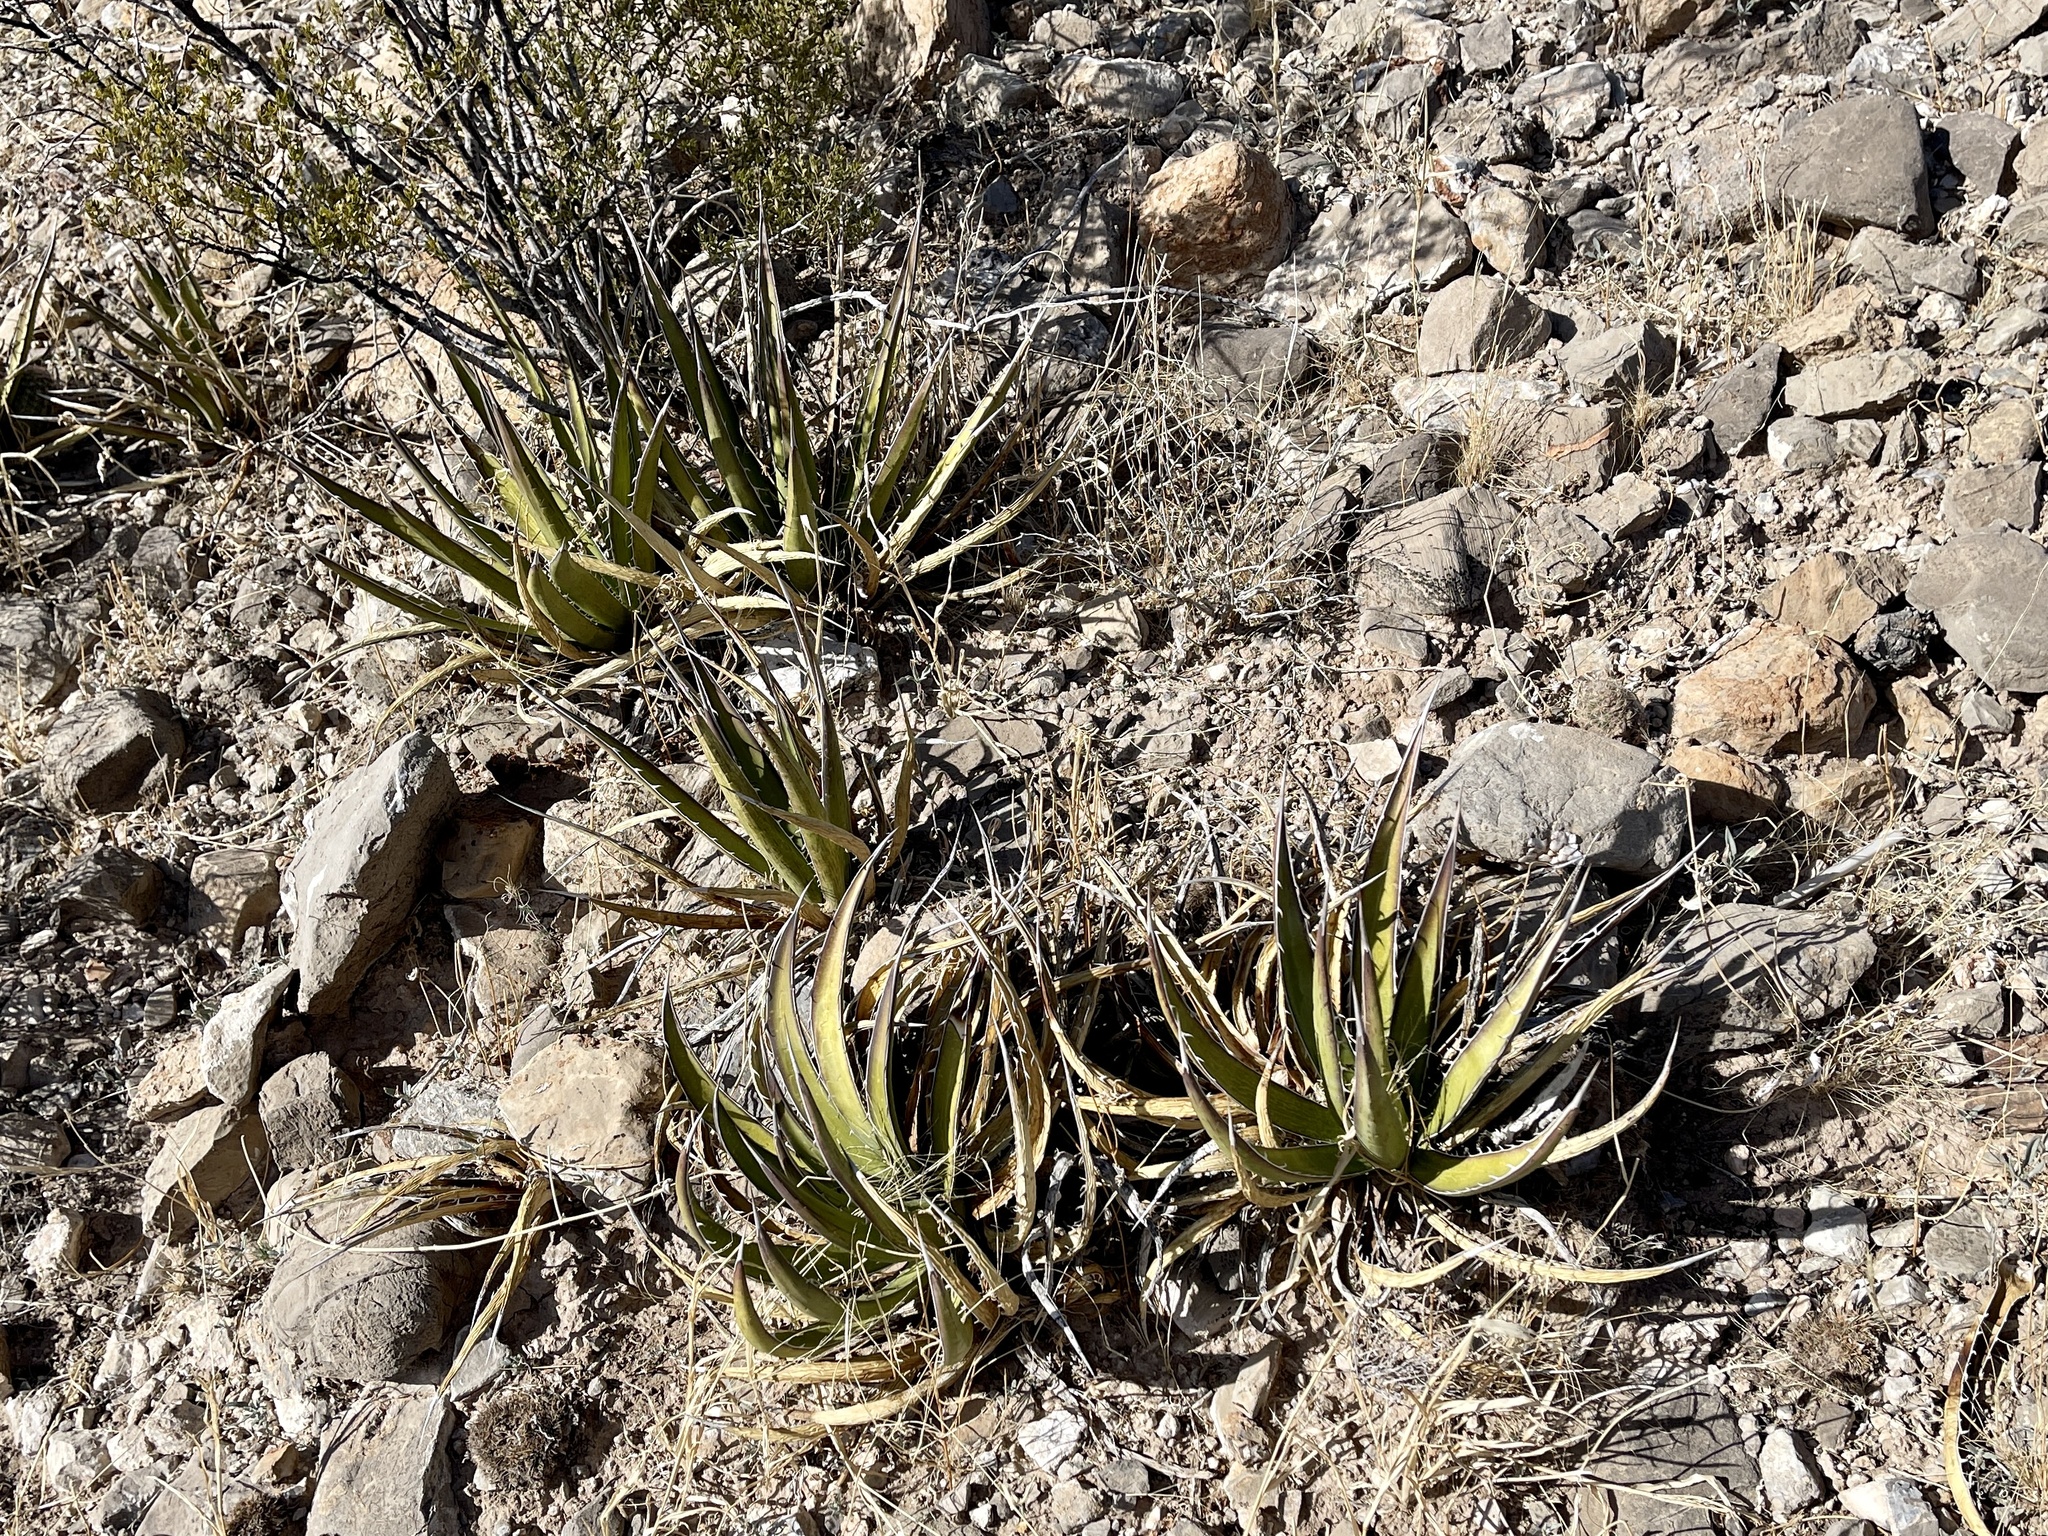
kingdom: Plantae
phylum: Tracheophyta
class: Liliopsida
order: Asparagales
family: Asparagaceae
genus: Agave
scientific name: Agave lechuguilla
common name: Lecheguilla agave
